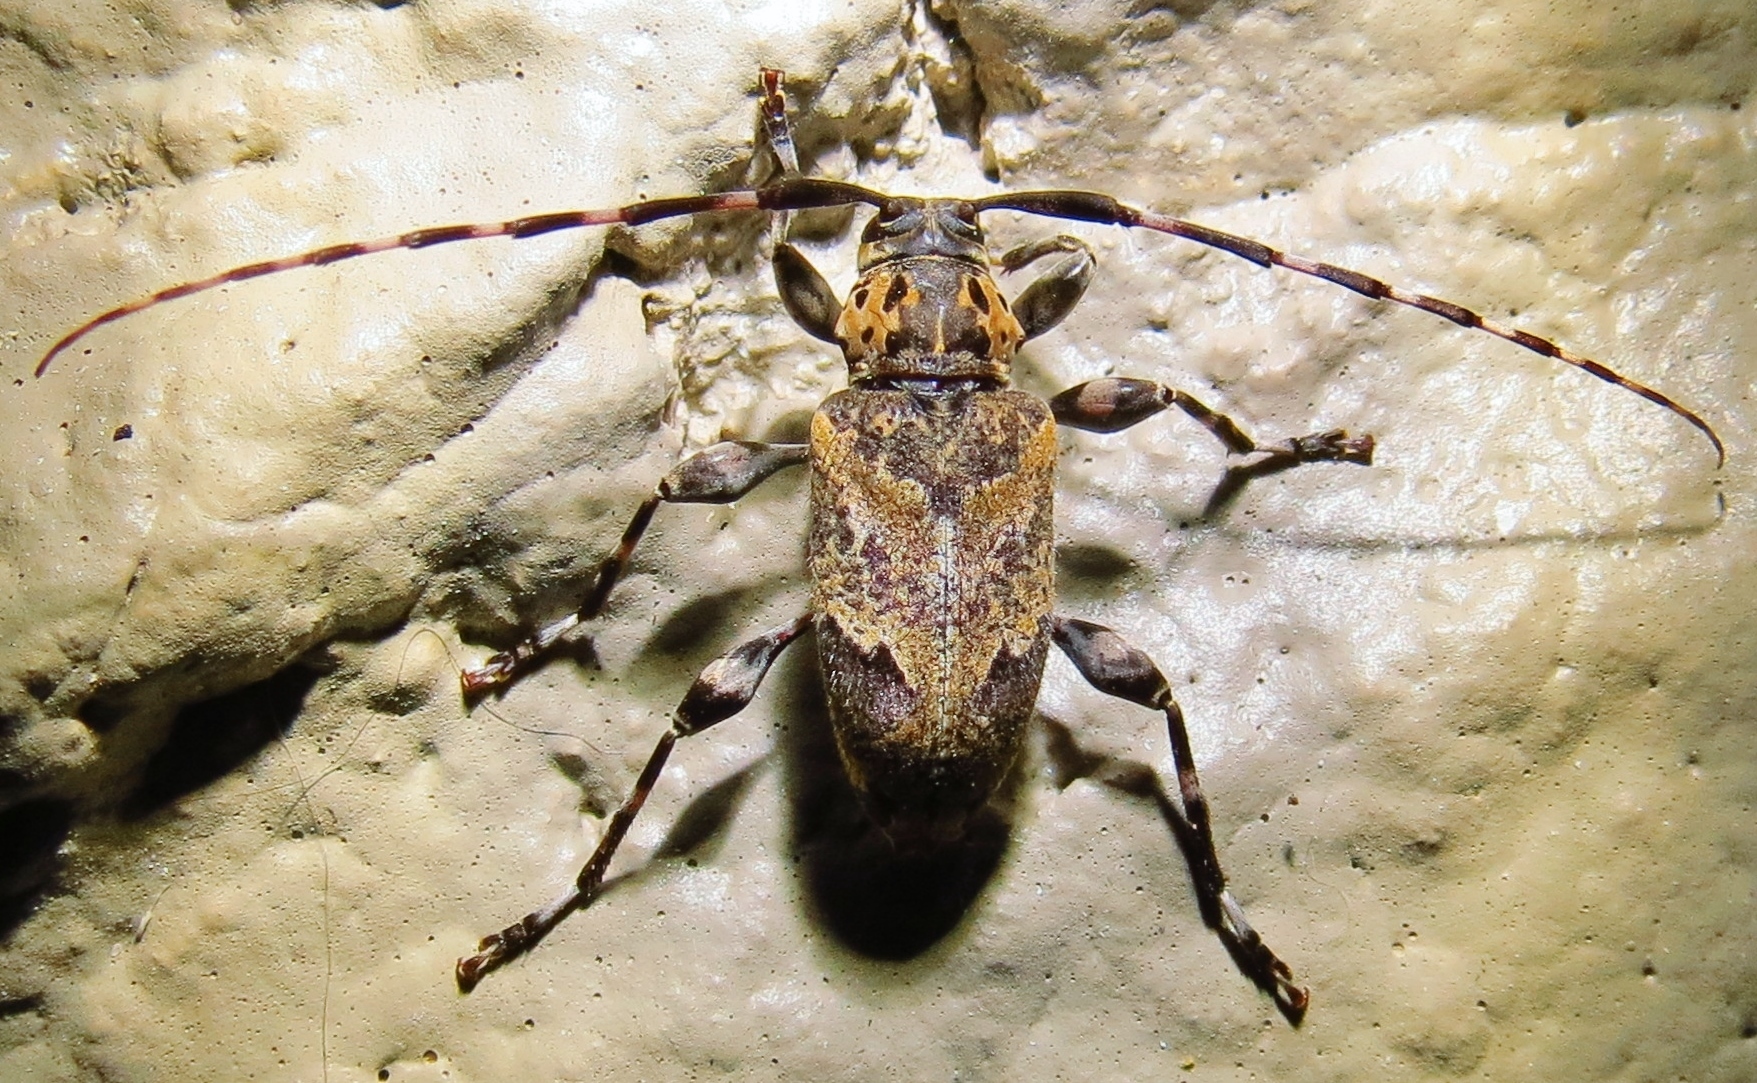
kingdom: Animalia
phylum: Arthropoda
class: Insecta
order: Coleoptera
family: Cerambycidae
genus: Graphisurus
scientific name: Graphisurus triangulifer
